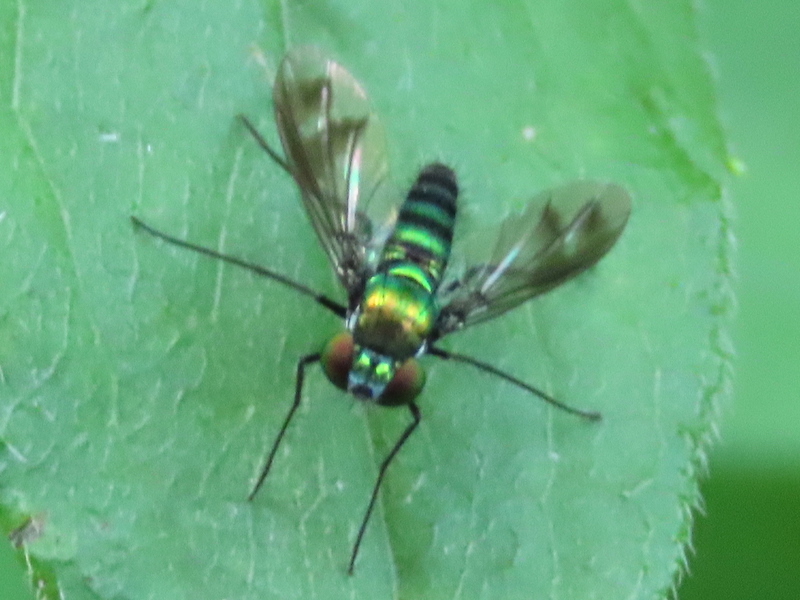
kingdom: Animalia
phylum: Arthropoda
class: Insecta
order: Diptera
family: Dolichopodidae
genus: Condylostylus
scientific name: Condylostylus patibulatus
